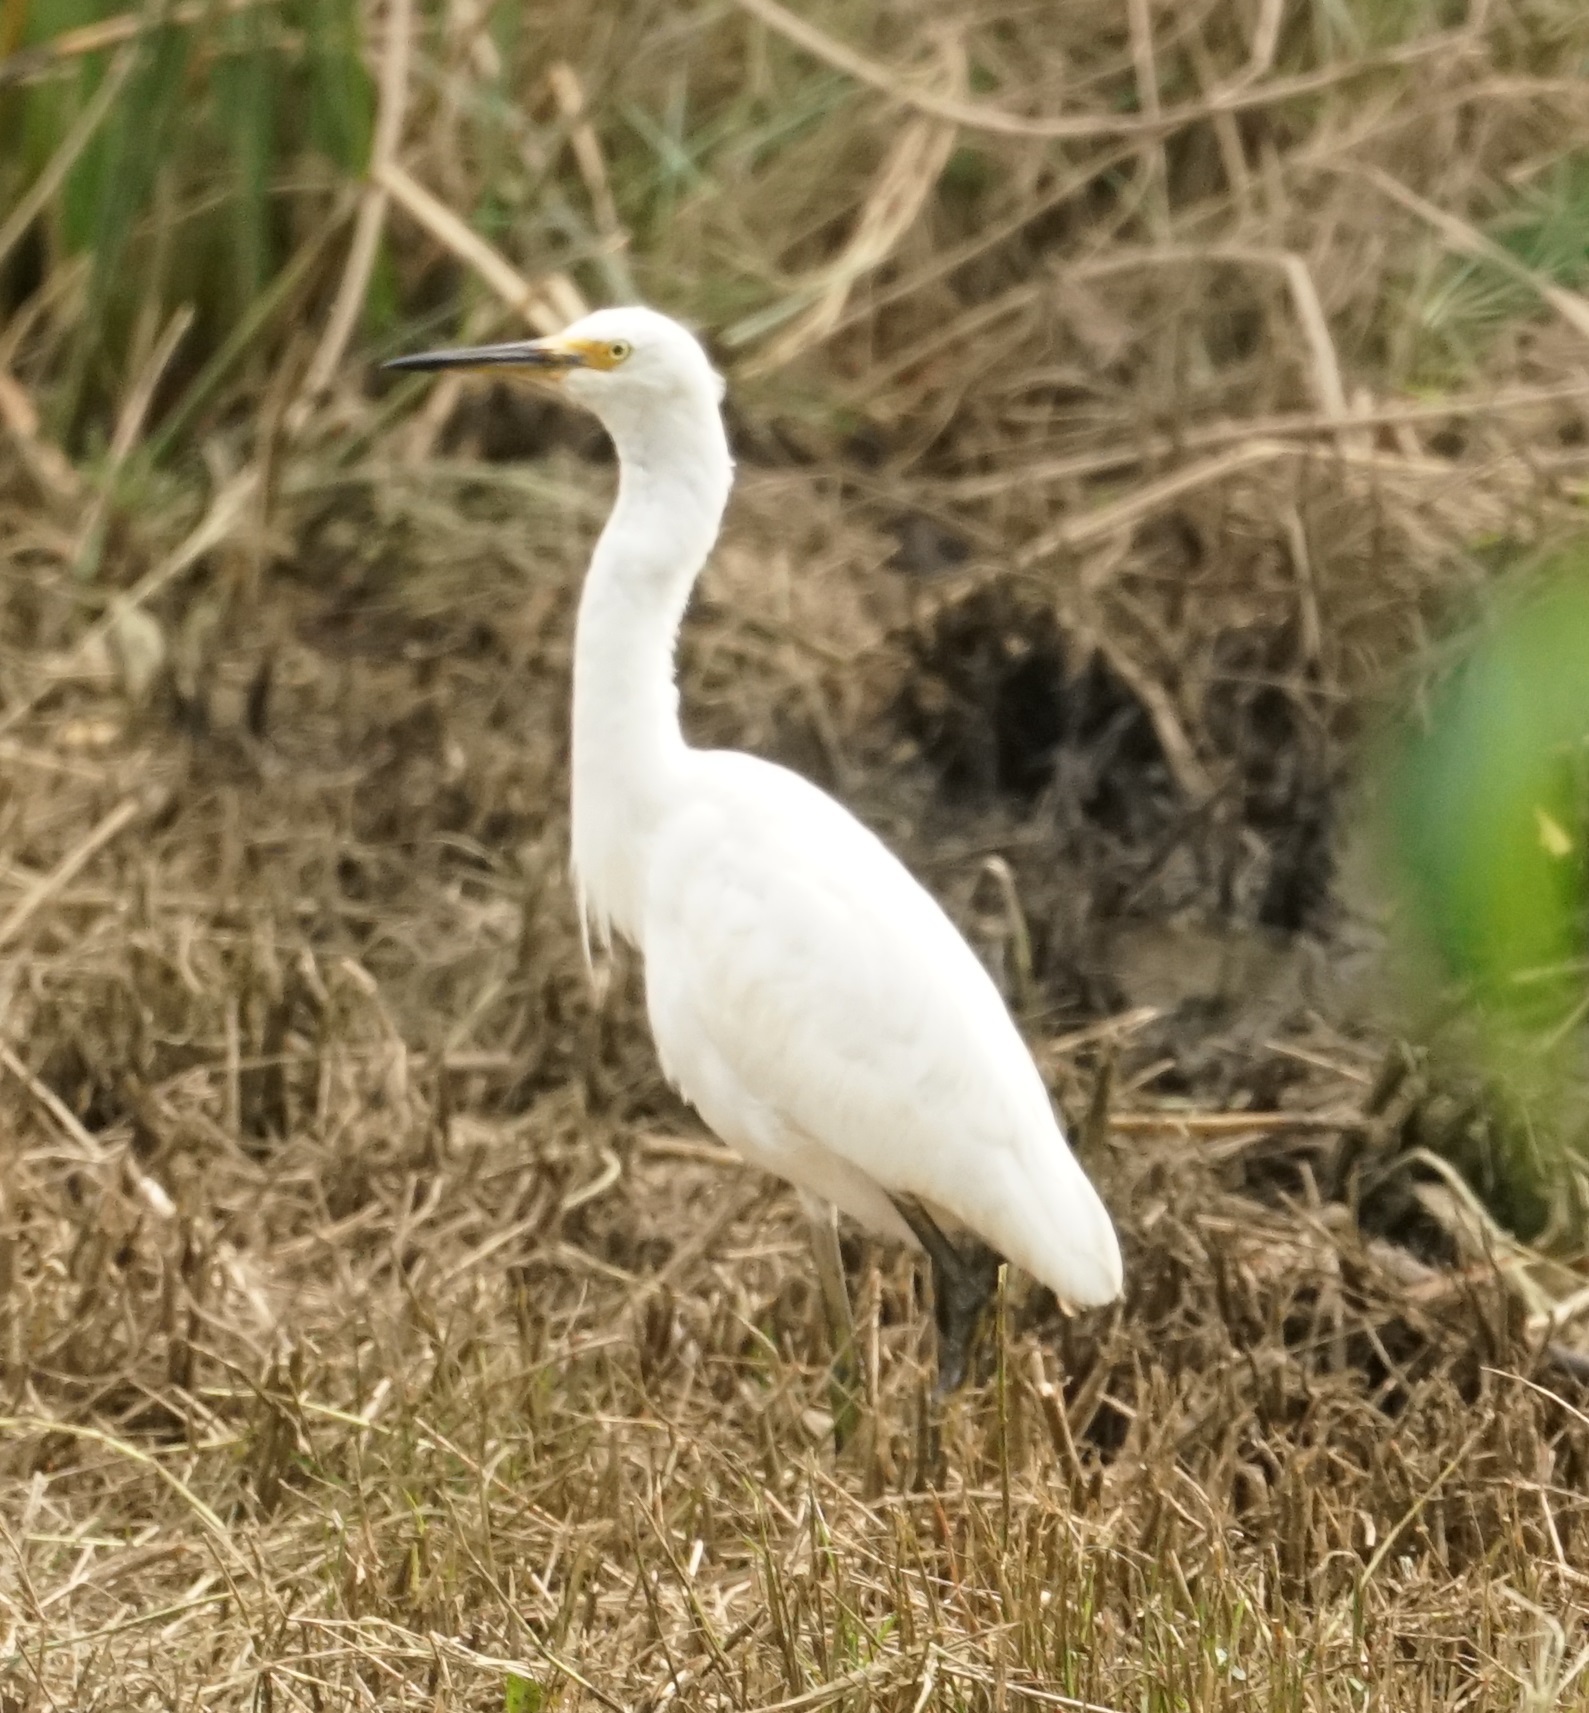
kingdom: Animalia
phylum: Chordata
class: Aves
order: Pelecaniformes
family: Ardeidae
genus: Egretta
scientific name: Egretta garzetta
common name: Little egret
